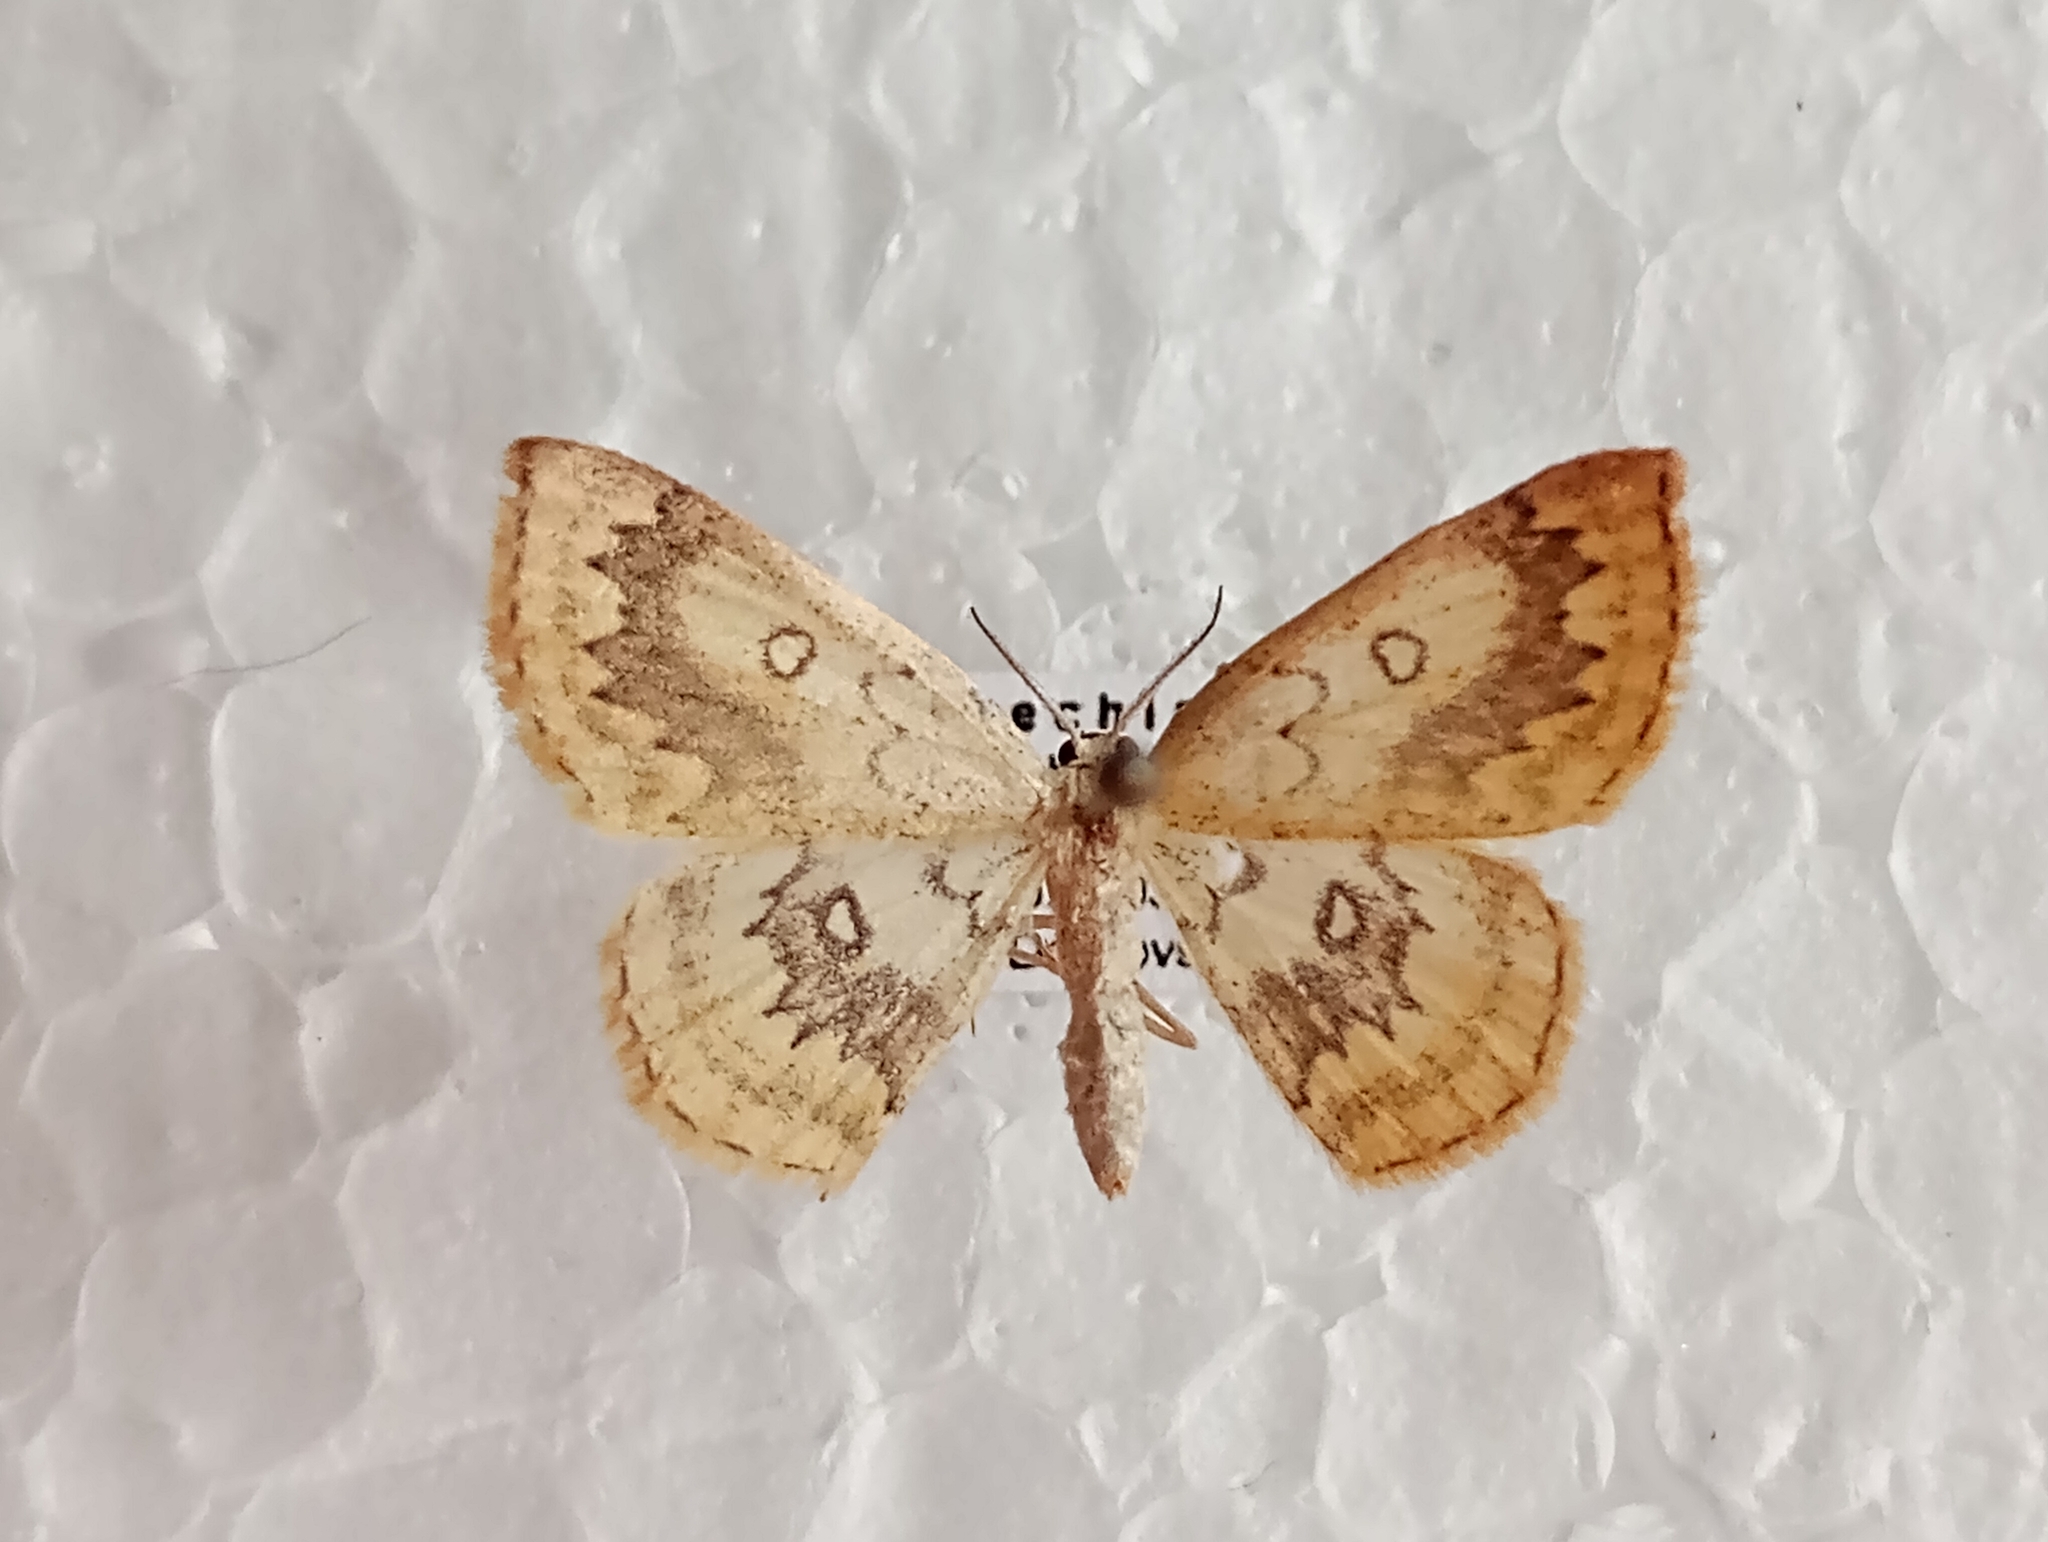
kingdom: Animalia
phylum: Arthropoda
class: Insecta
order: Lepidoptera
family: Geometridae
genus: Cyclophora
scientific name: Cyclophora annularia
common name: Mocha
